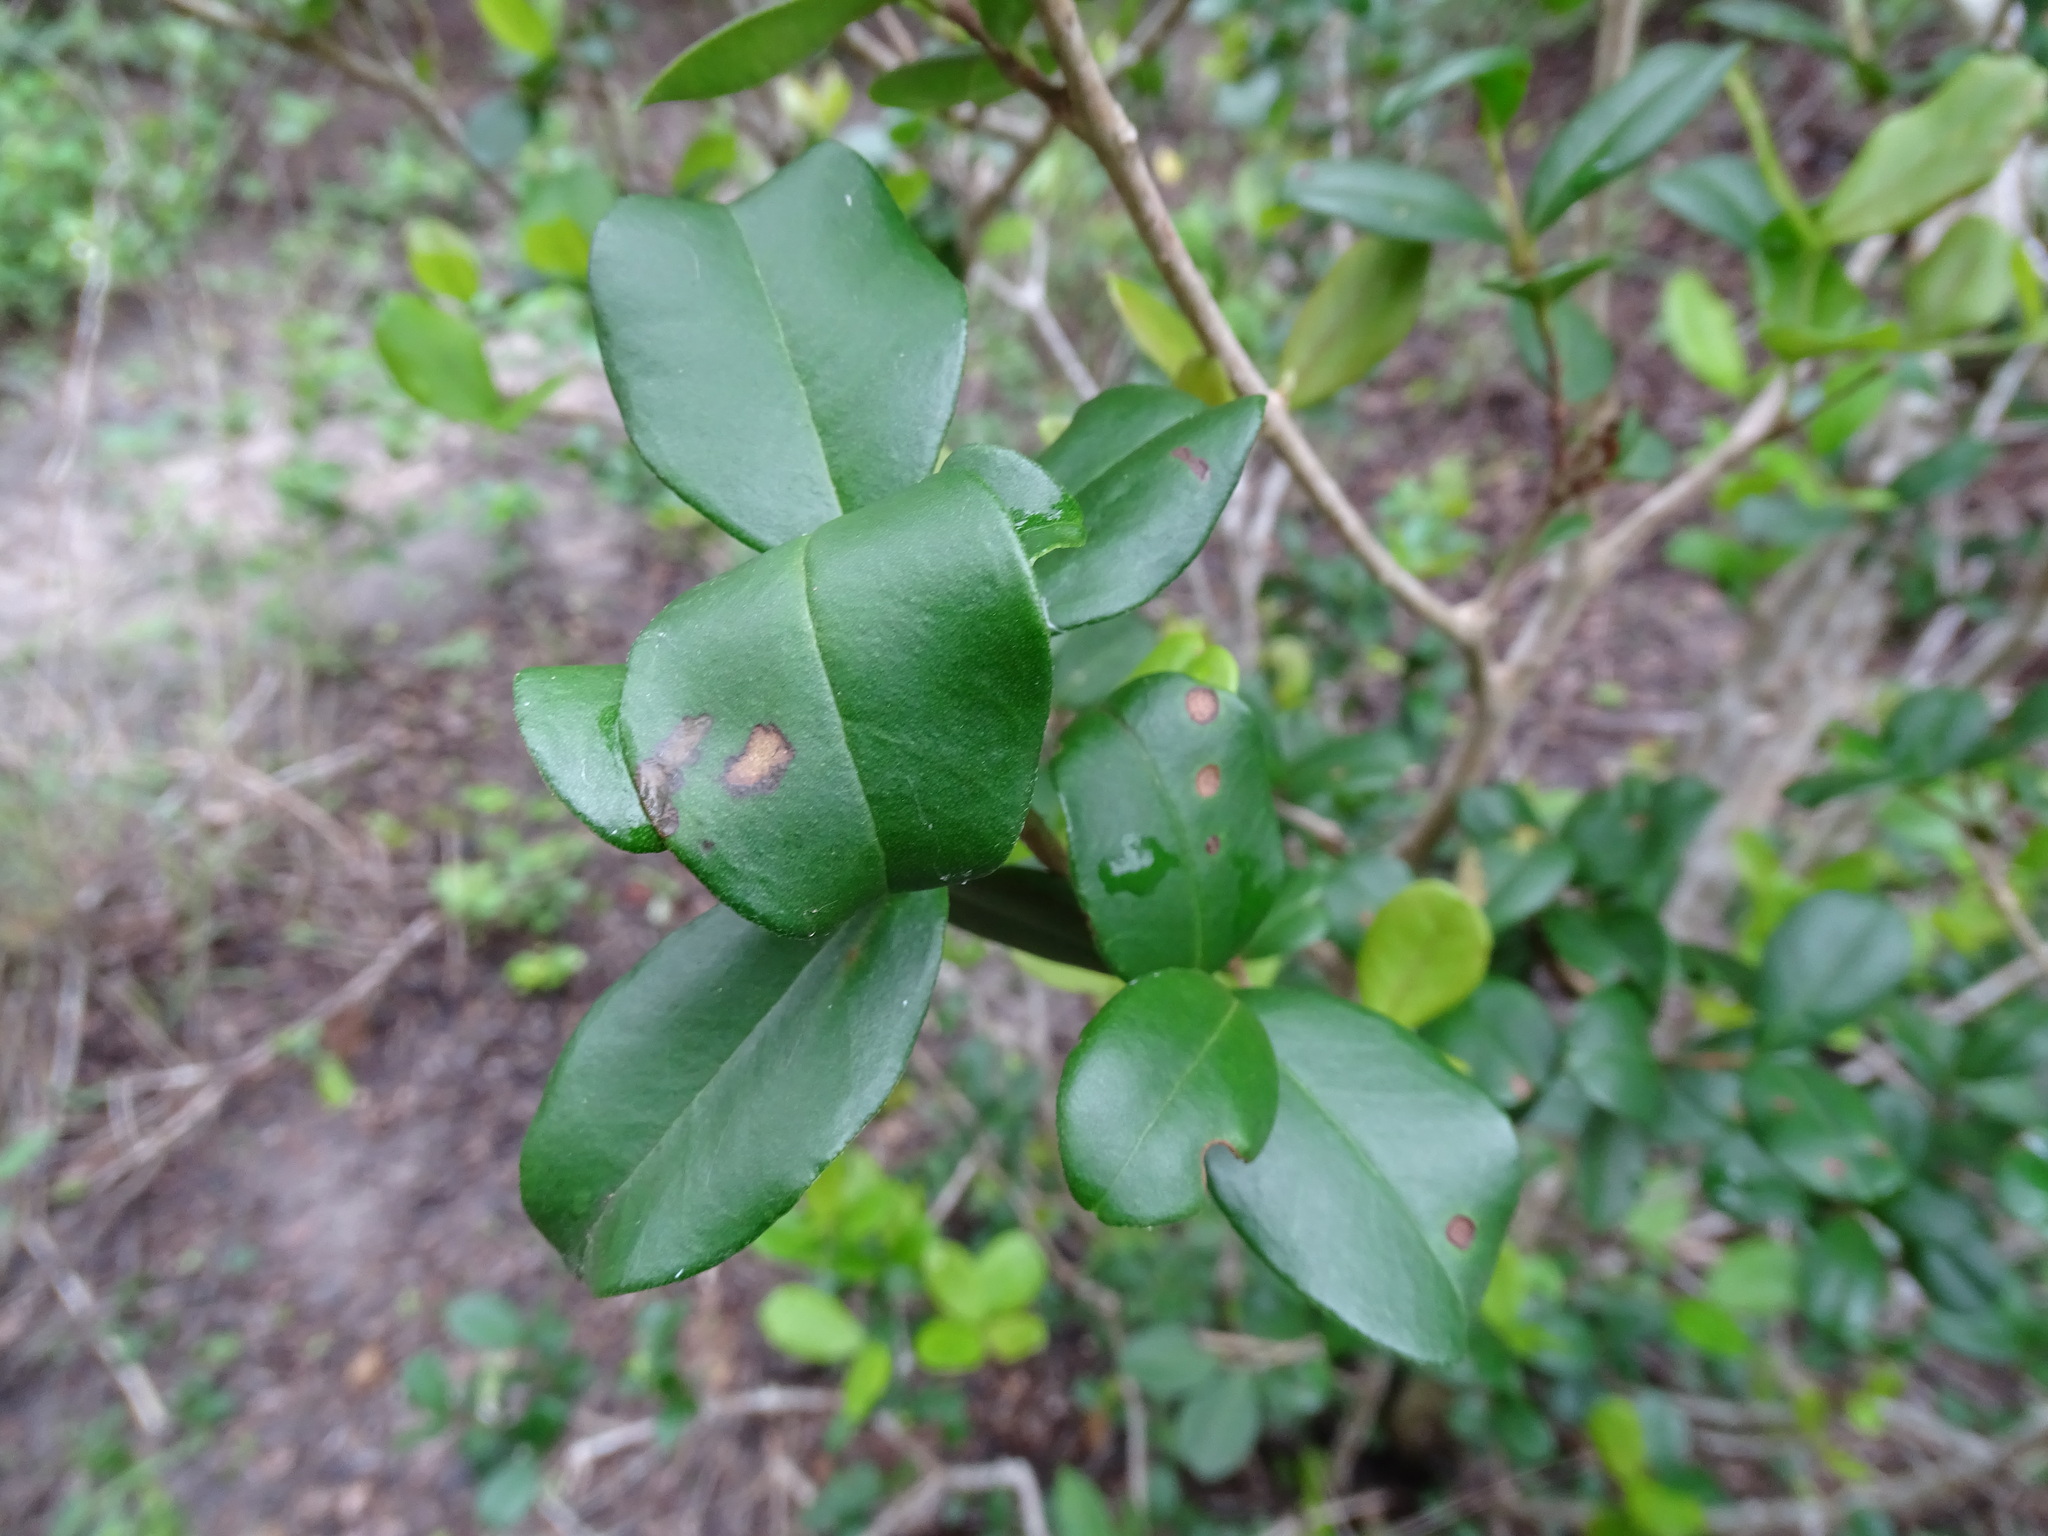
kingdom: Plantae
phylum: Tracheophyta
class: Magnoliopsida
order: Myrtales
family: Myrtaceae
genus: Myrcianthes
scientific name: Myrcianthes fragrans
